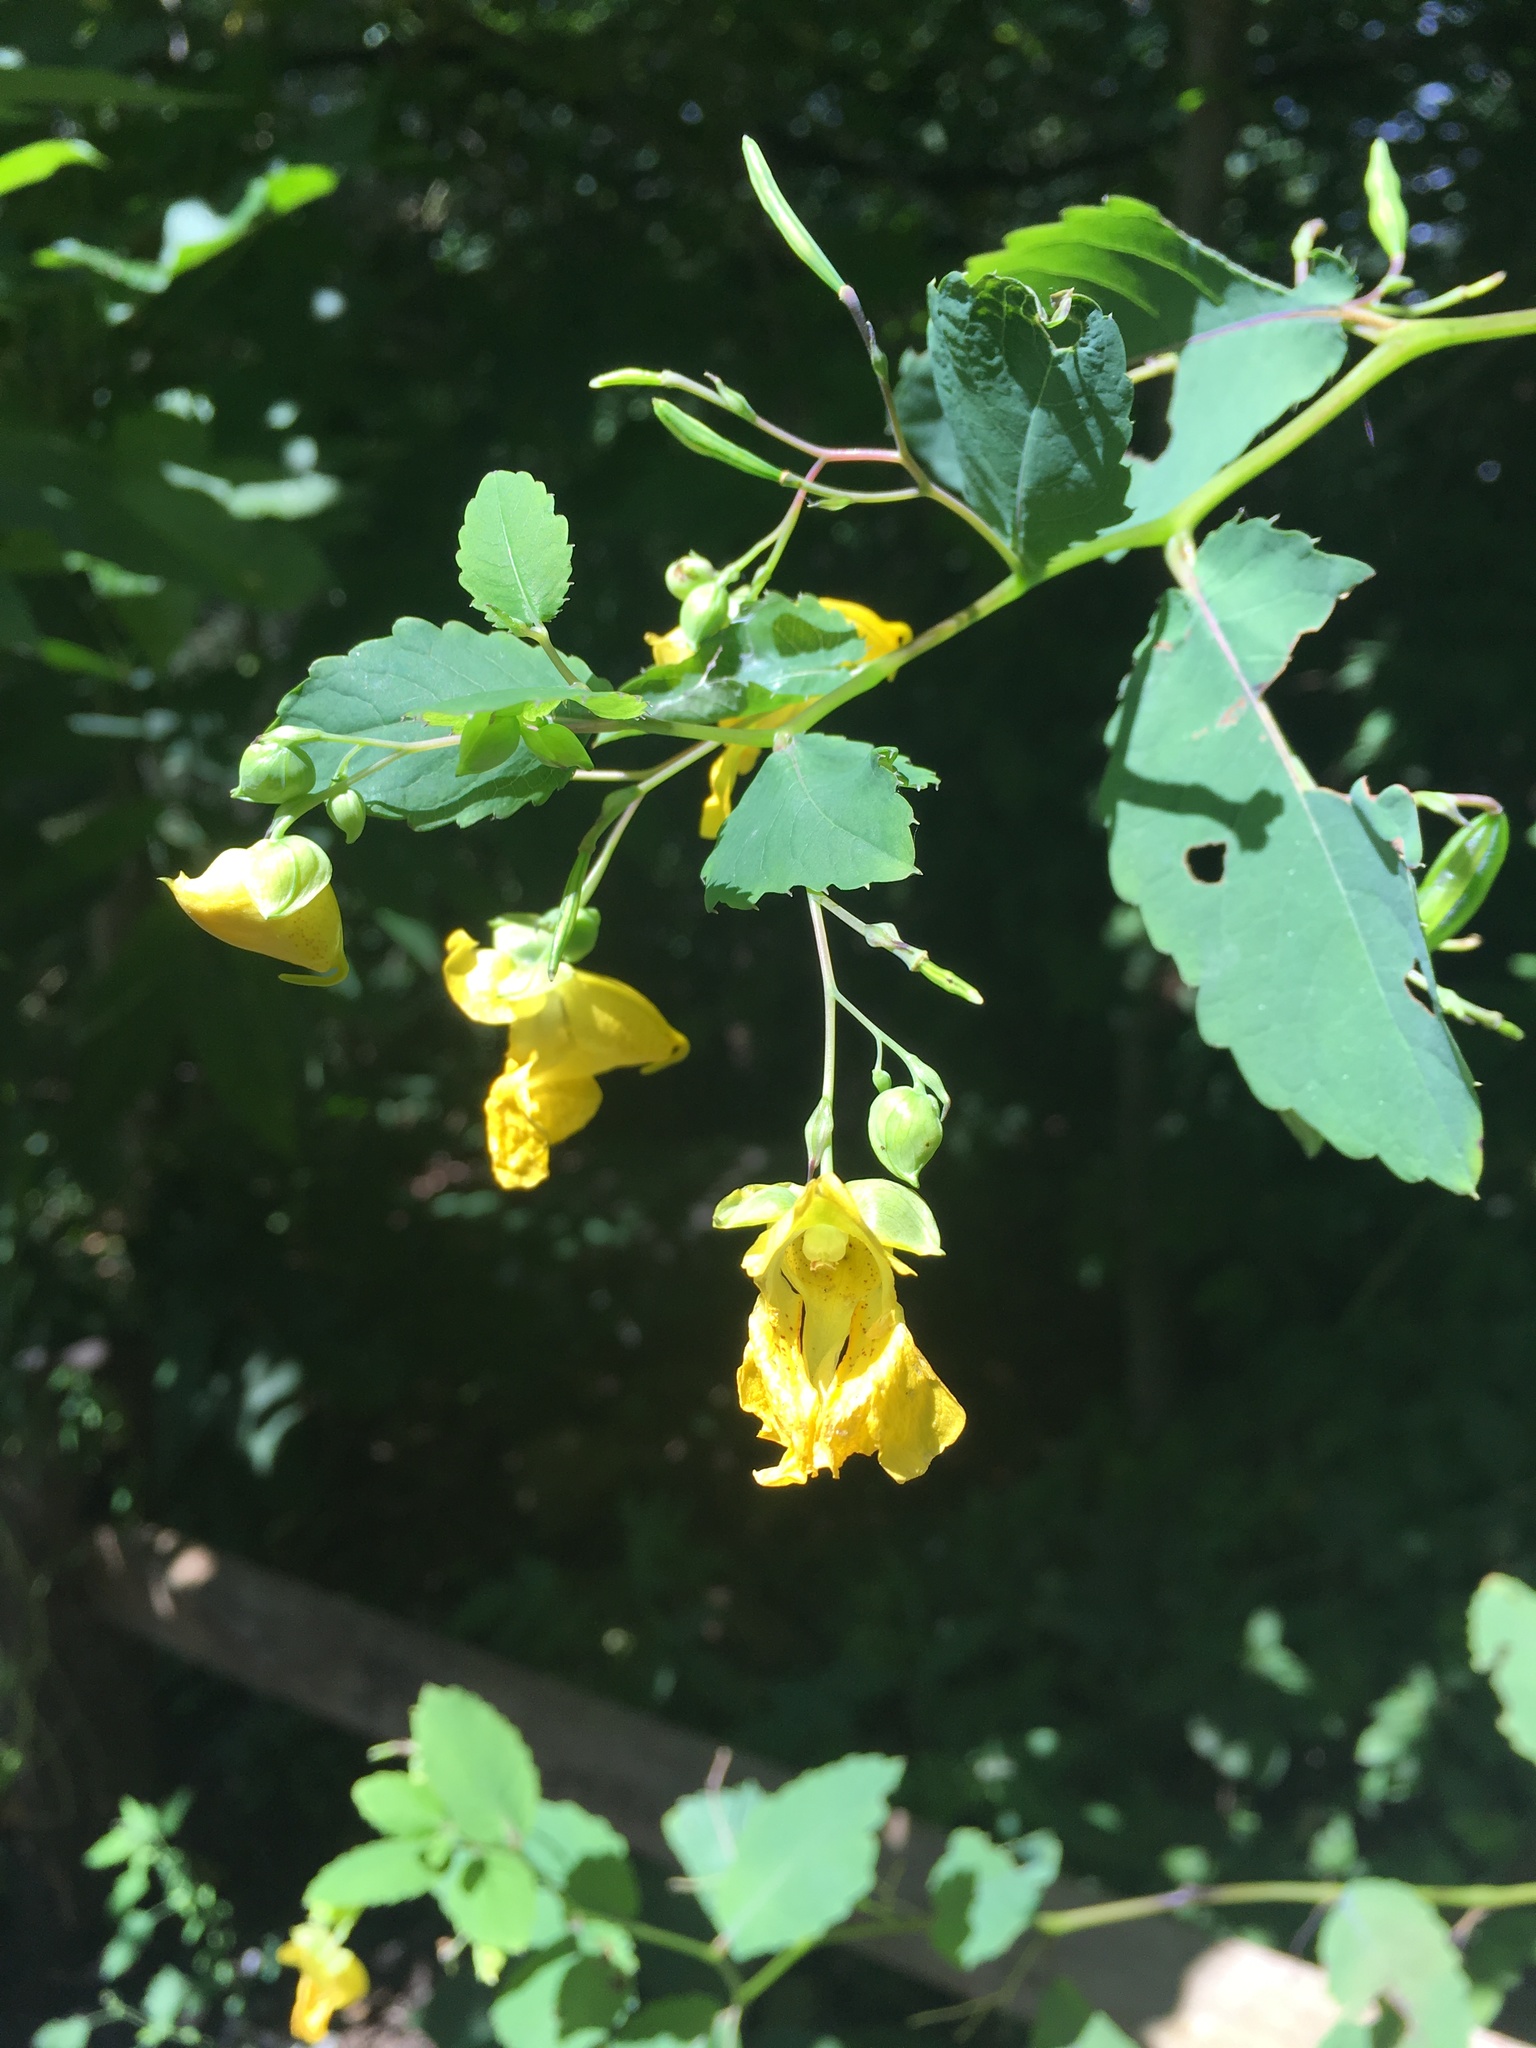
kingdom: Plantae
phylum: Tracheophyta
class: Magnoliopsida
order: Ericales
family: Balsaminaceae
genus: Impatiens
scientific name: Impatiens pallida
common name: Pale snapweed
